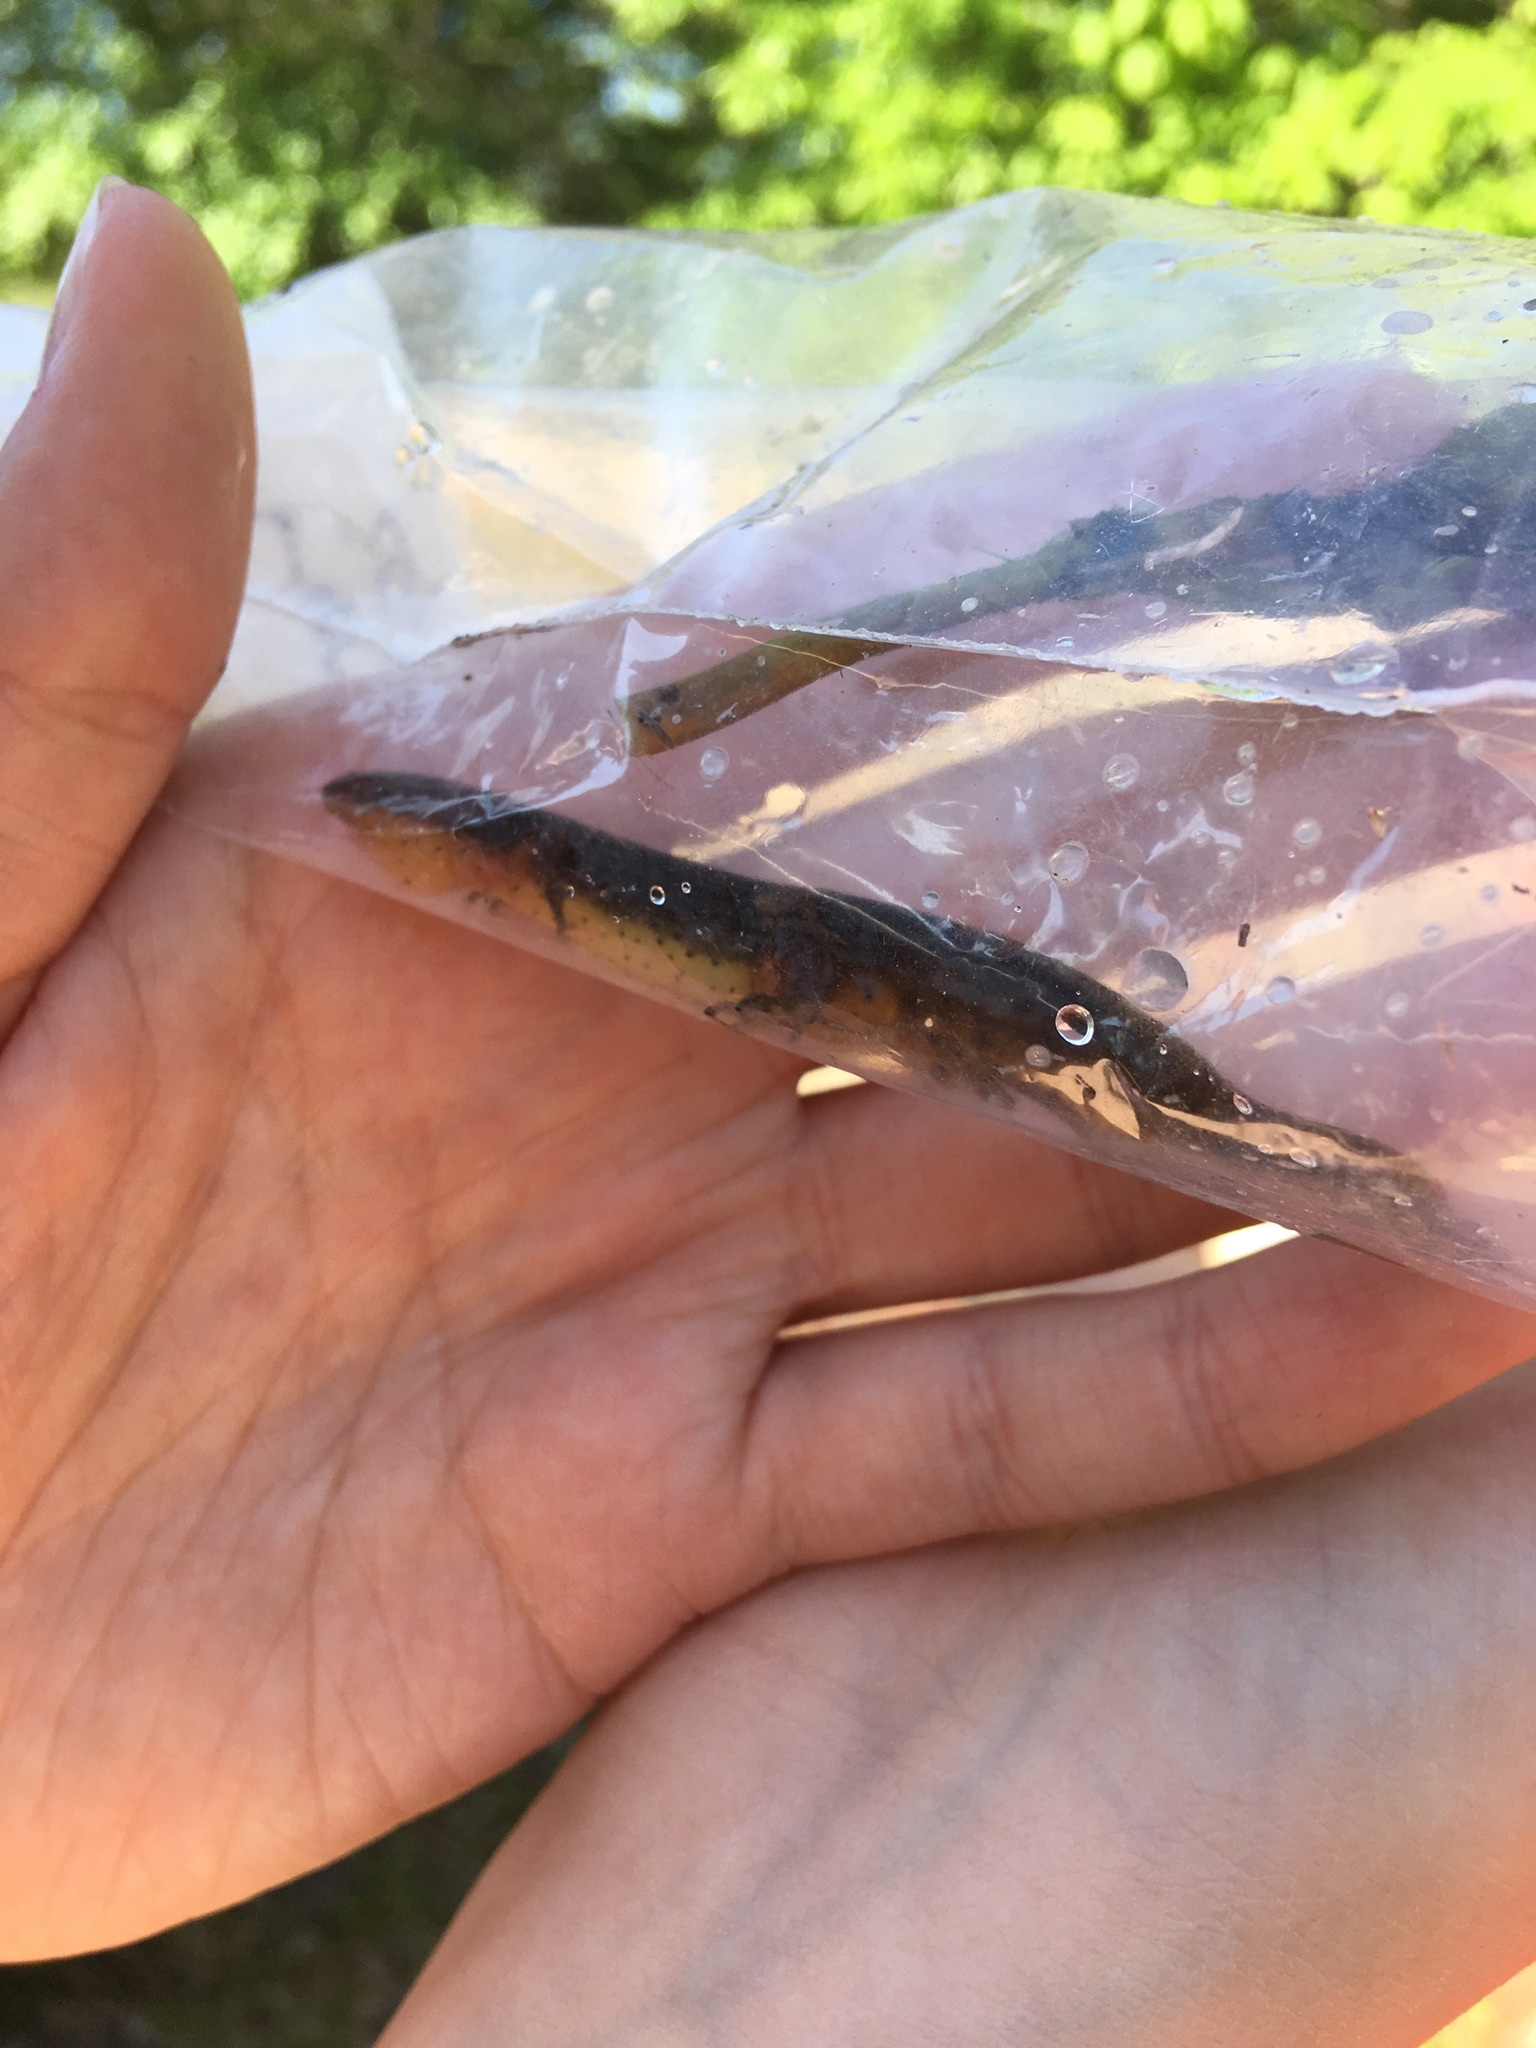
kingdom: Animalia
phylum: Chordata
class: Amphibia
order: Caudata
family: Salamandridae
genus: Notophthalmus
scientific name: Notophthalmus viridescens
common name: Eastern newt
